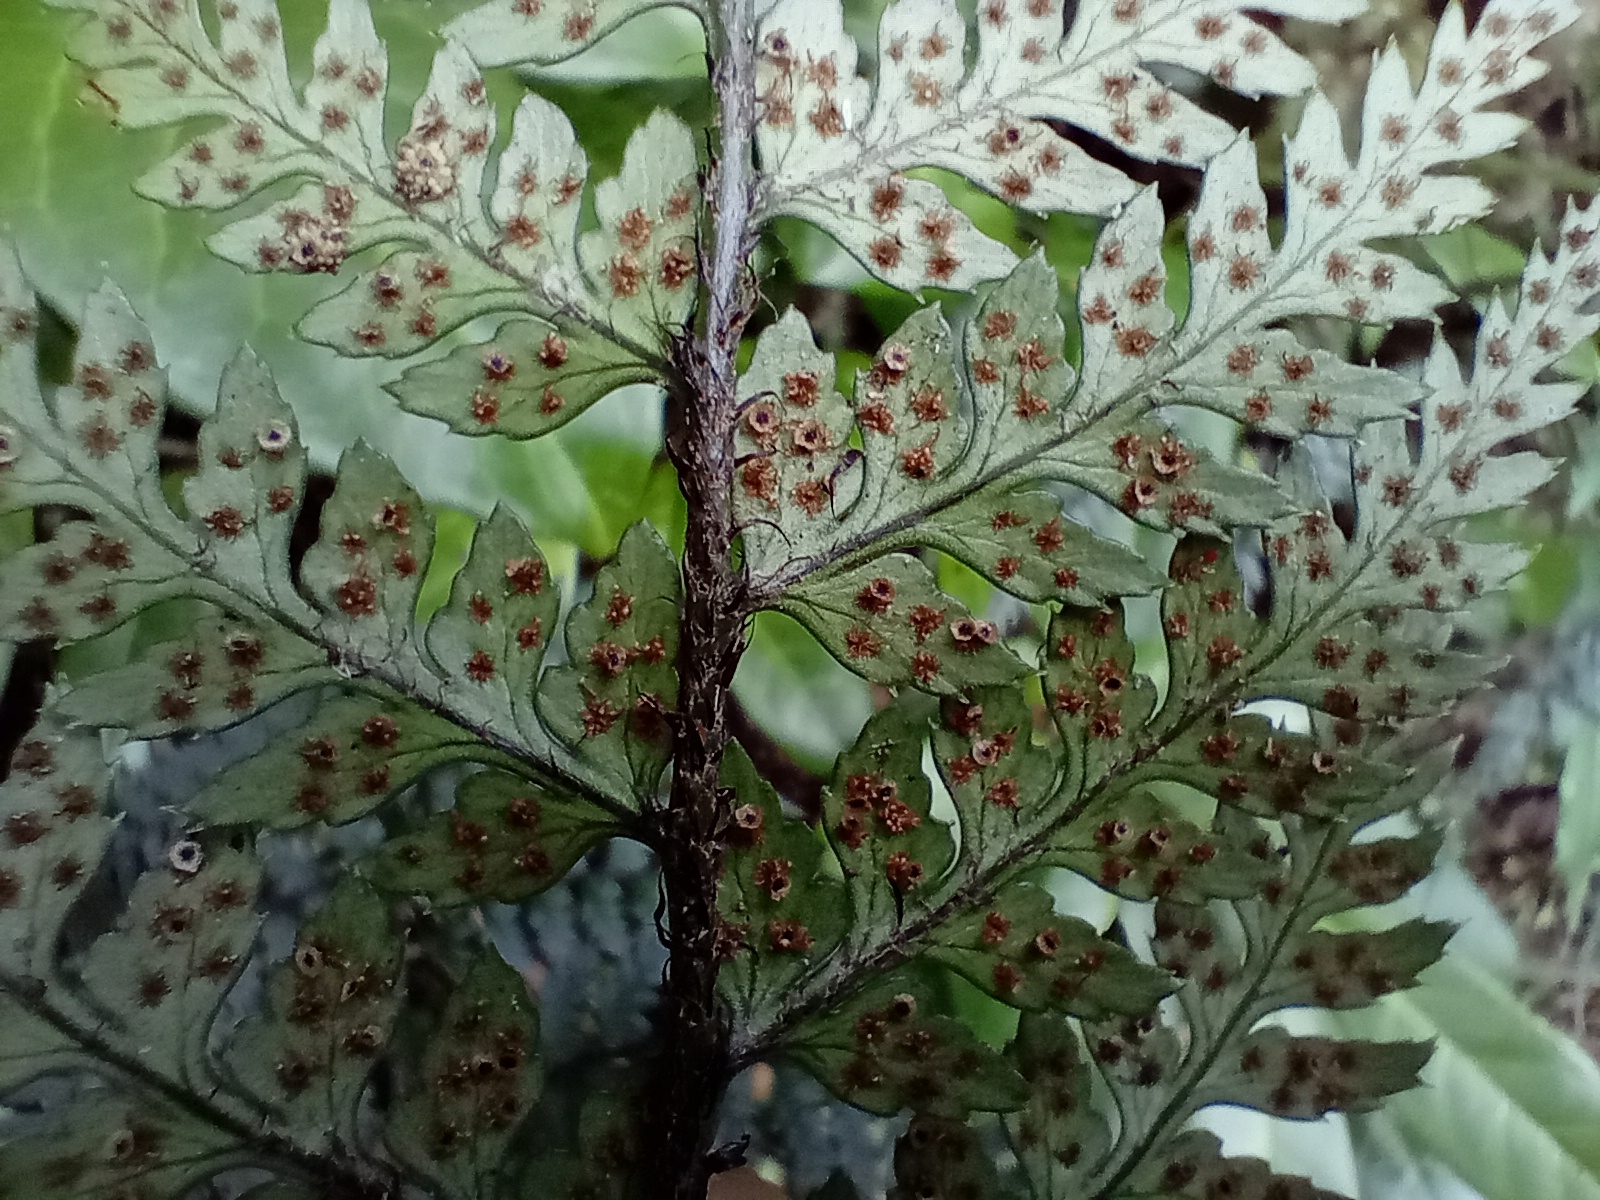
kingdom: Plantae
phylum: Tracheophyta
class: Polypodiopsida
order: Polypodiales
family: Dryopteridaceae
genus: Polystichum
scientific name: Polystichum neozelandicum
